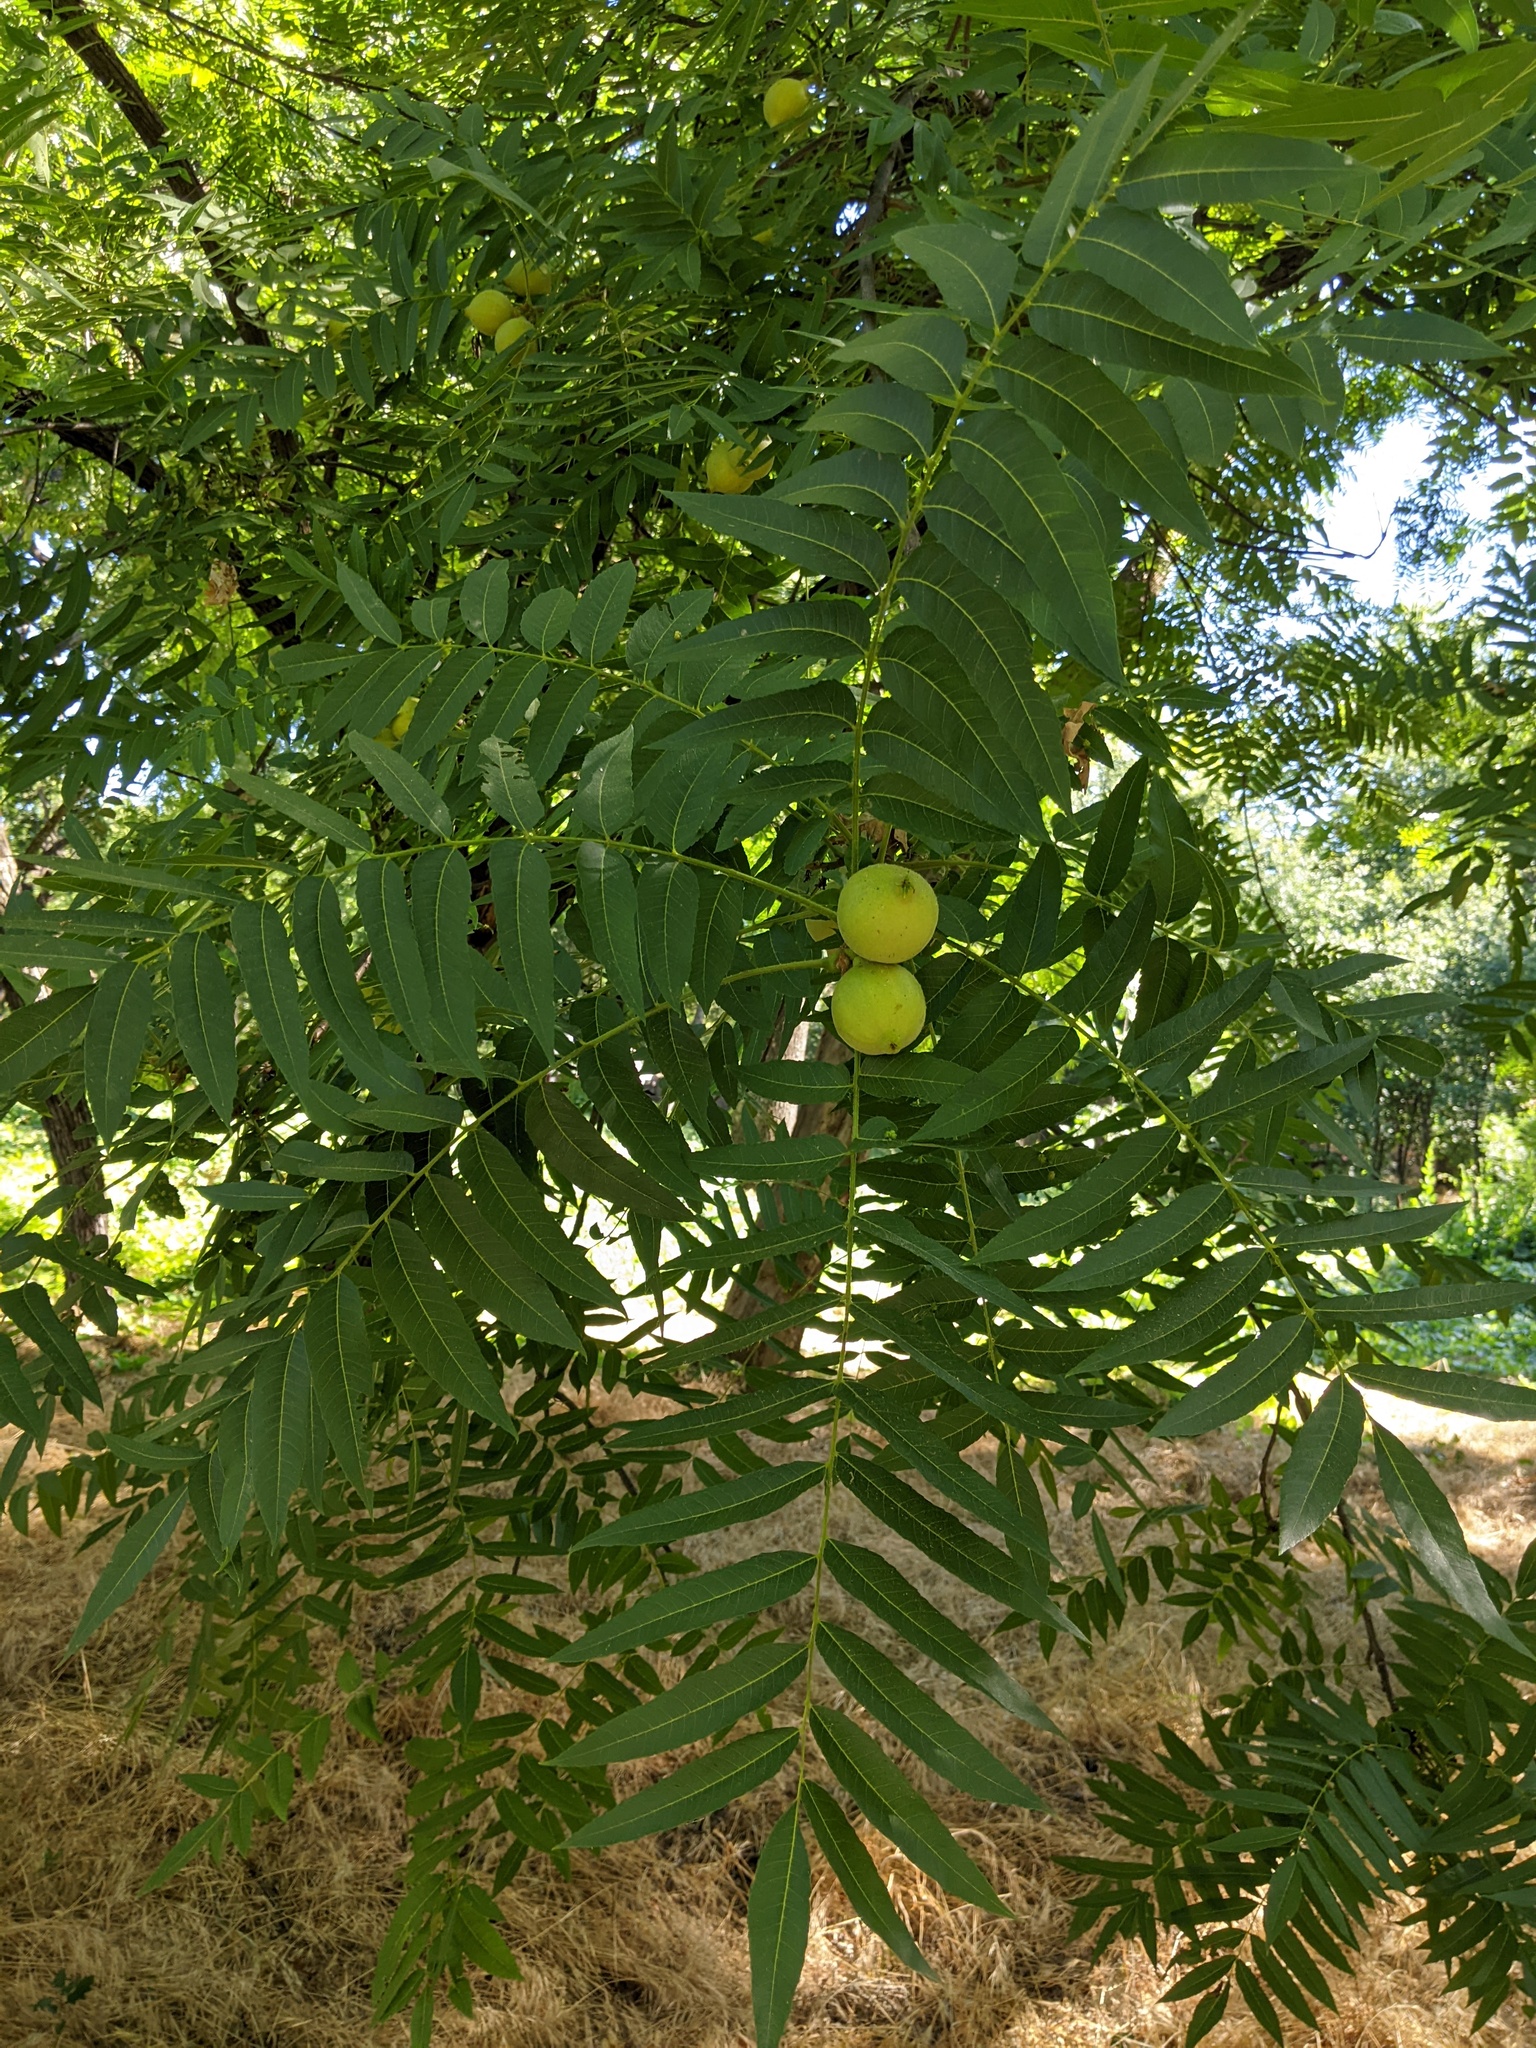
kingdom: Plantae
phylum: Tracheophyta
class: Magnoliopsida
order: Fagales
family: Juglandaceae
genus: Juglans
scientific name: Juglans hindsii
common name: Northern california black walnut
